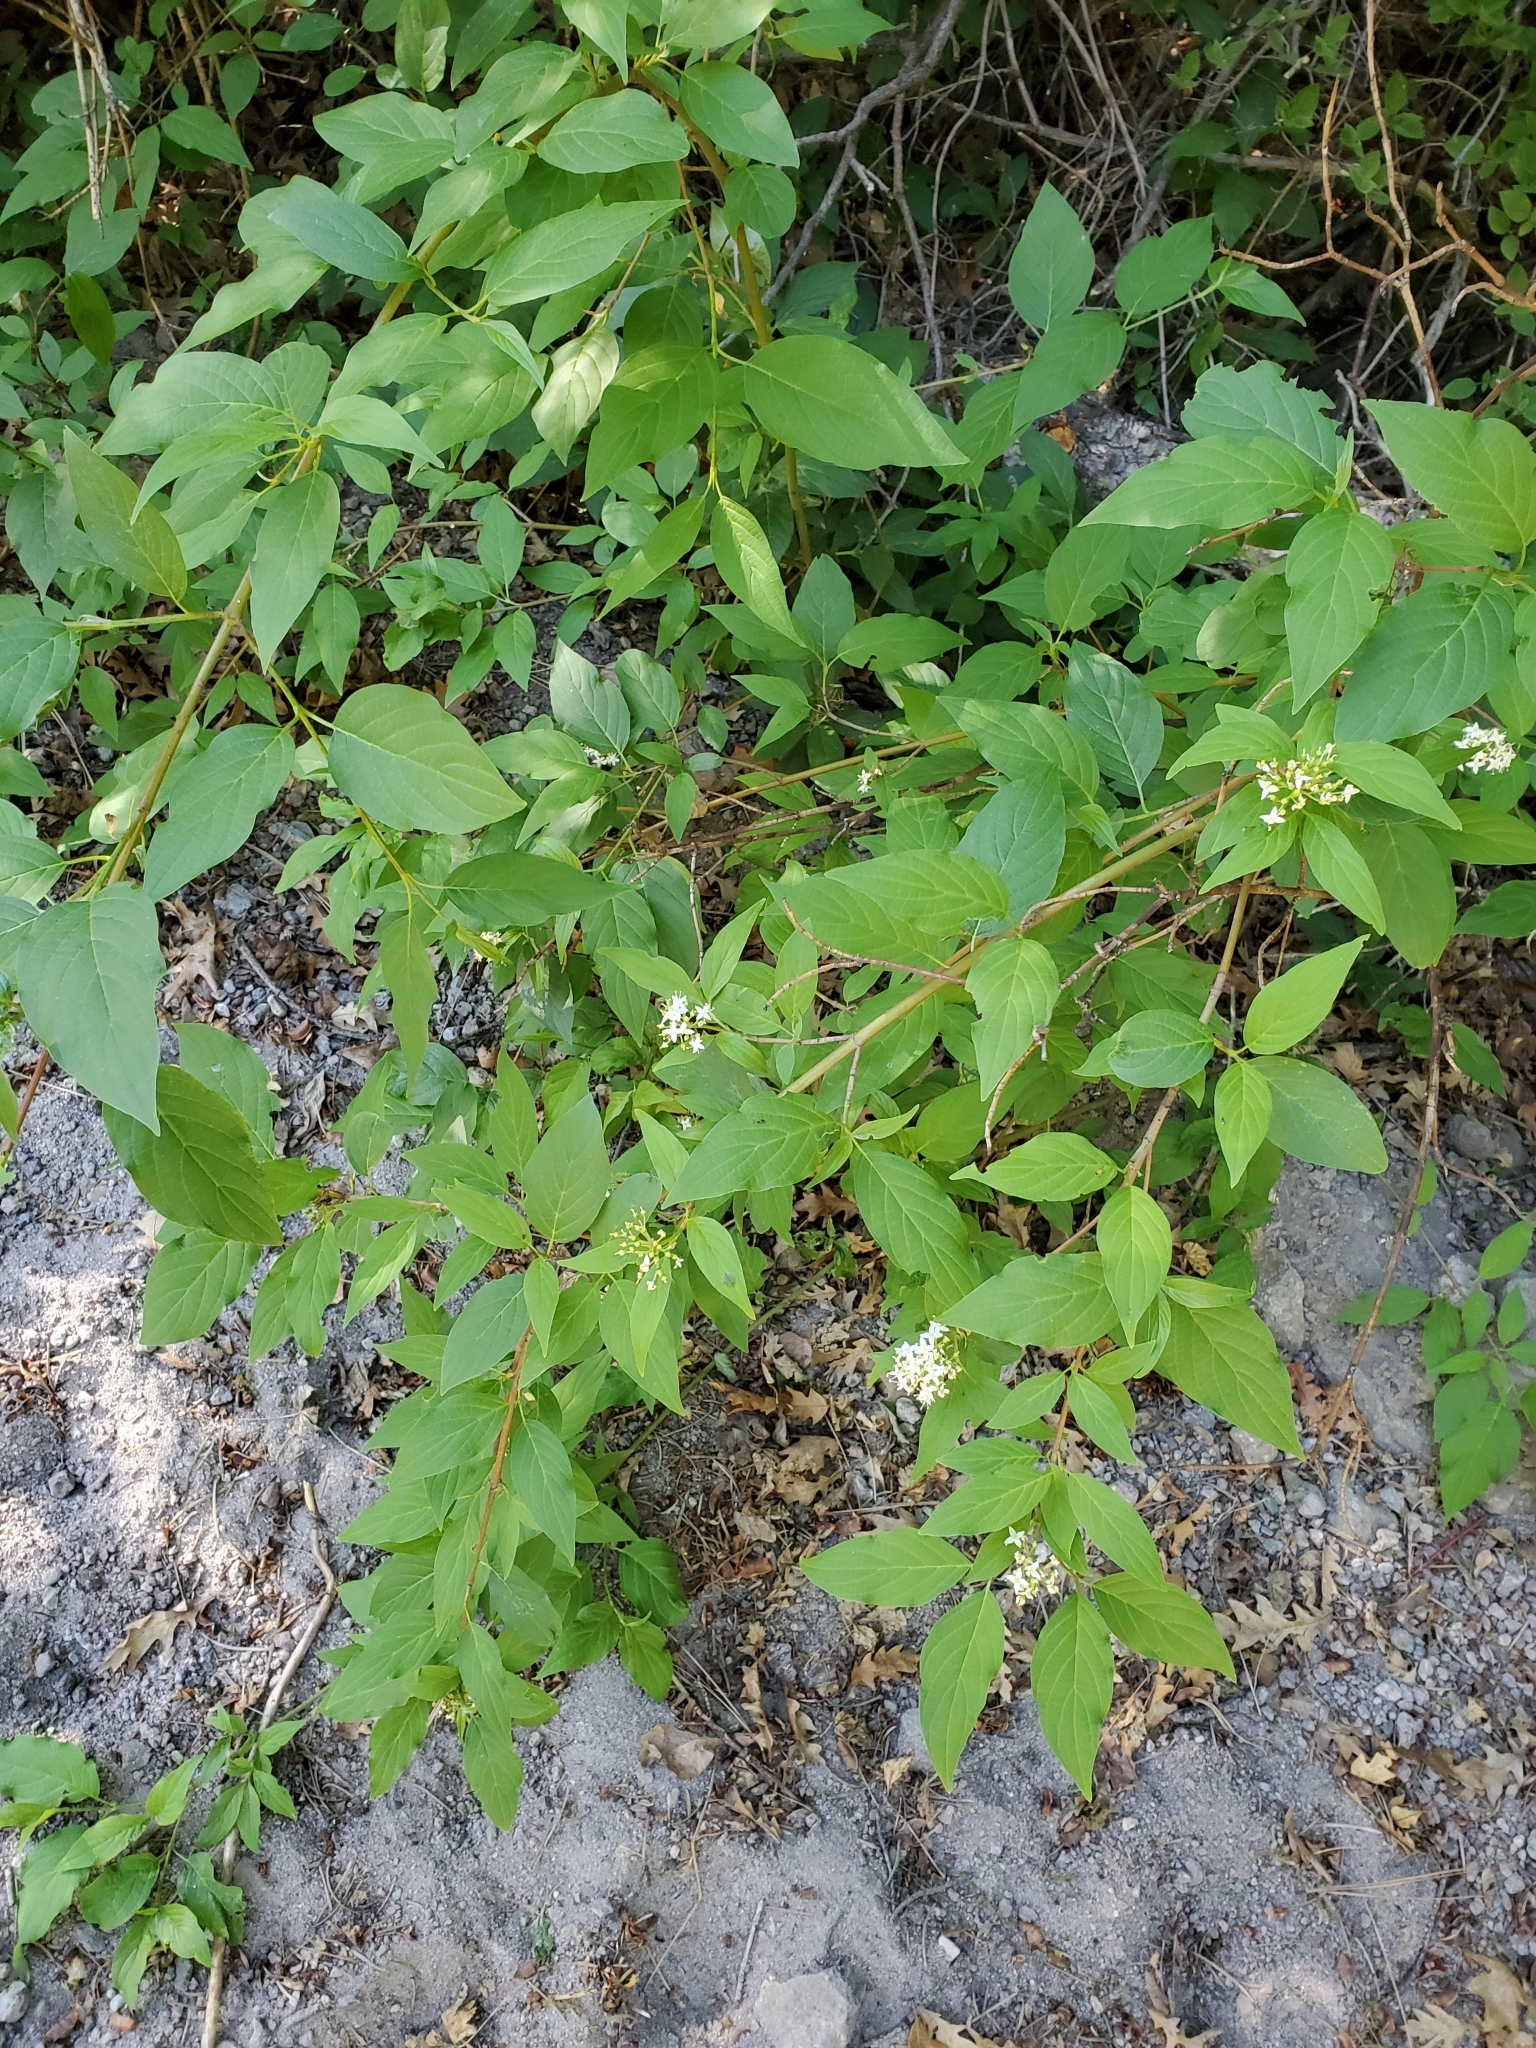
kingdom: Plantae
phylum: Tracheophyta
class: Magnoliopsida
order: Cornales
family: Cornaceae
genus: Cornus
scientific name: Cornus sericea
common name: Red-osier dogwood
